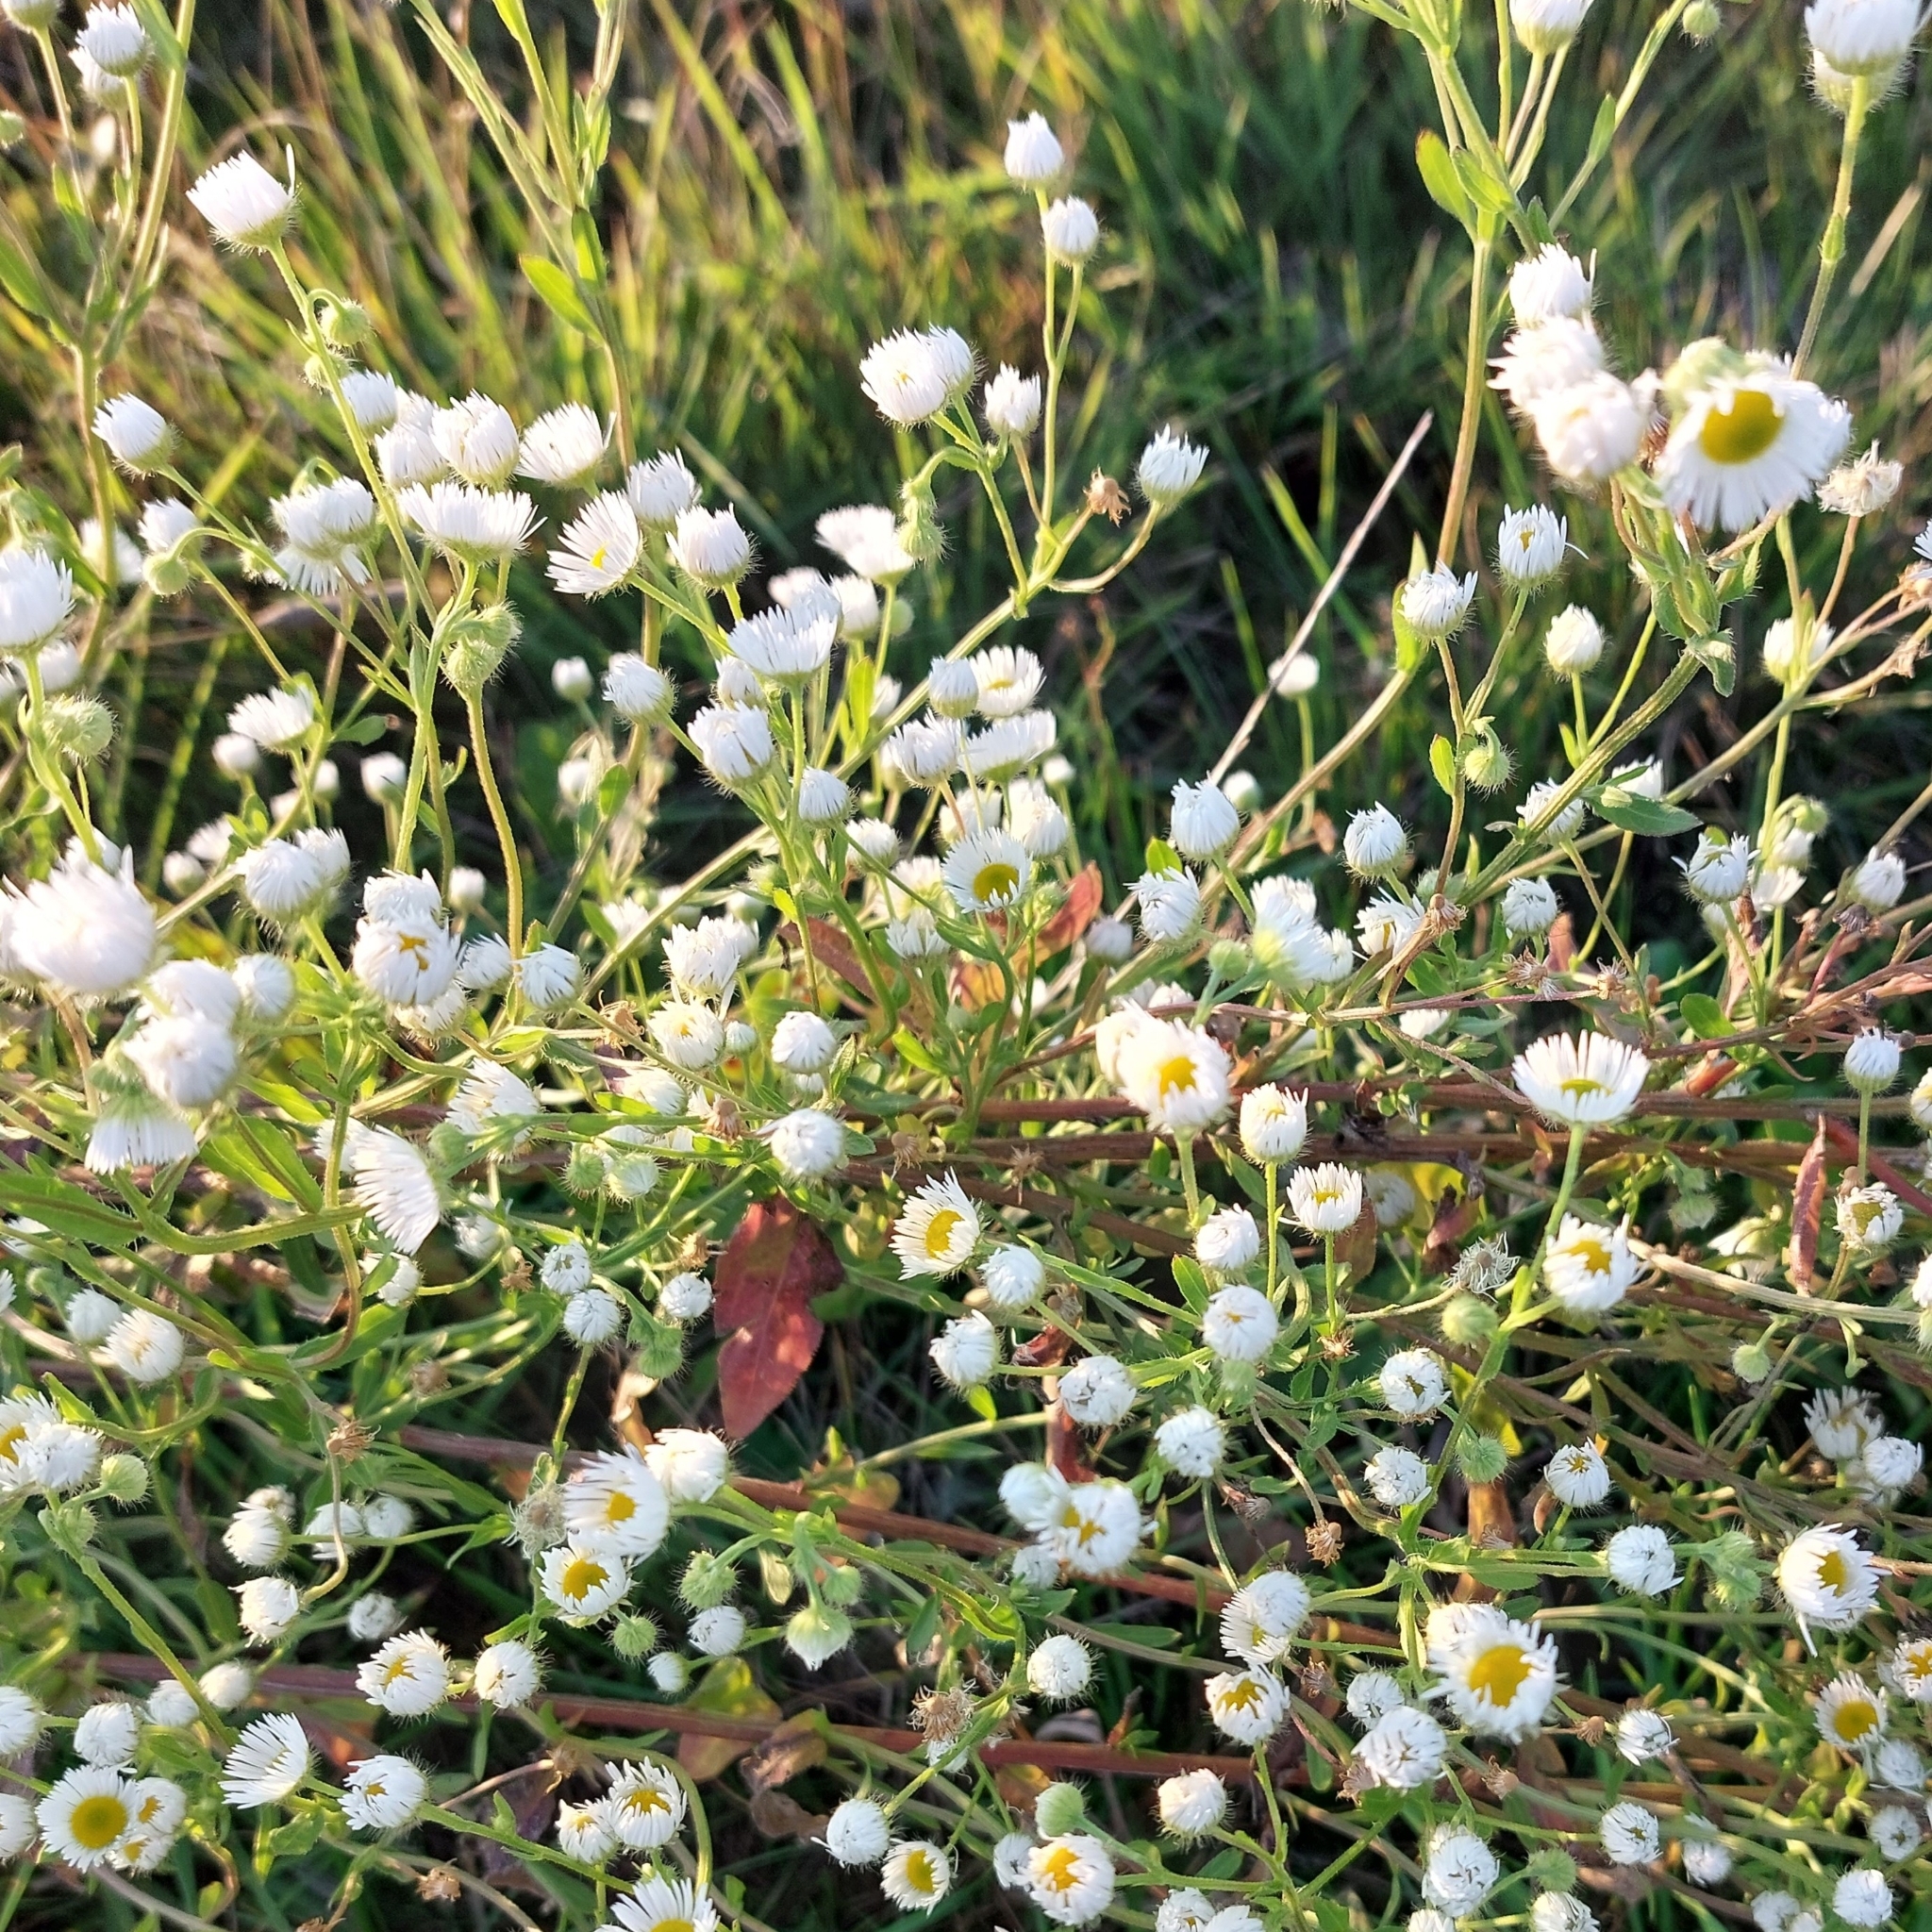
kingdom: Plantae
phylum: Tracheophyta
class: Magnoliopsida
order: Asterales
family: Asteraceae
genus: Erigeron
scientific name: Erigeron annuus
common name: Tall fleabane
